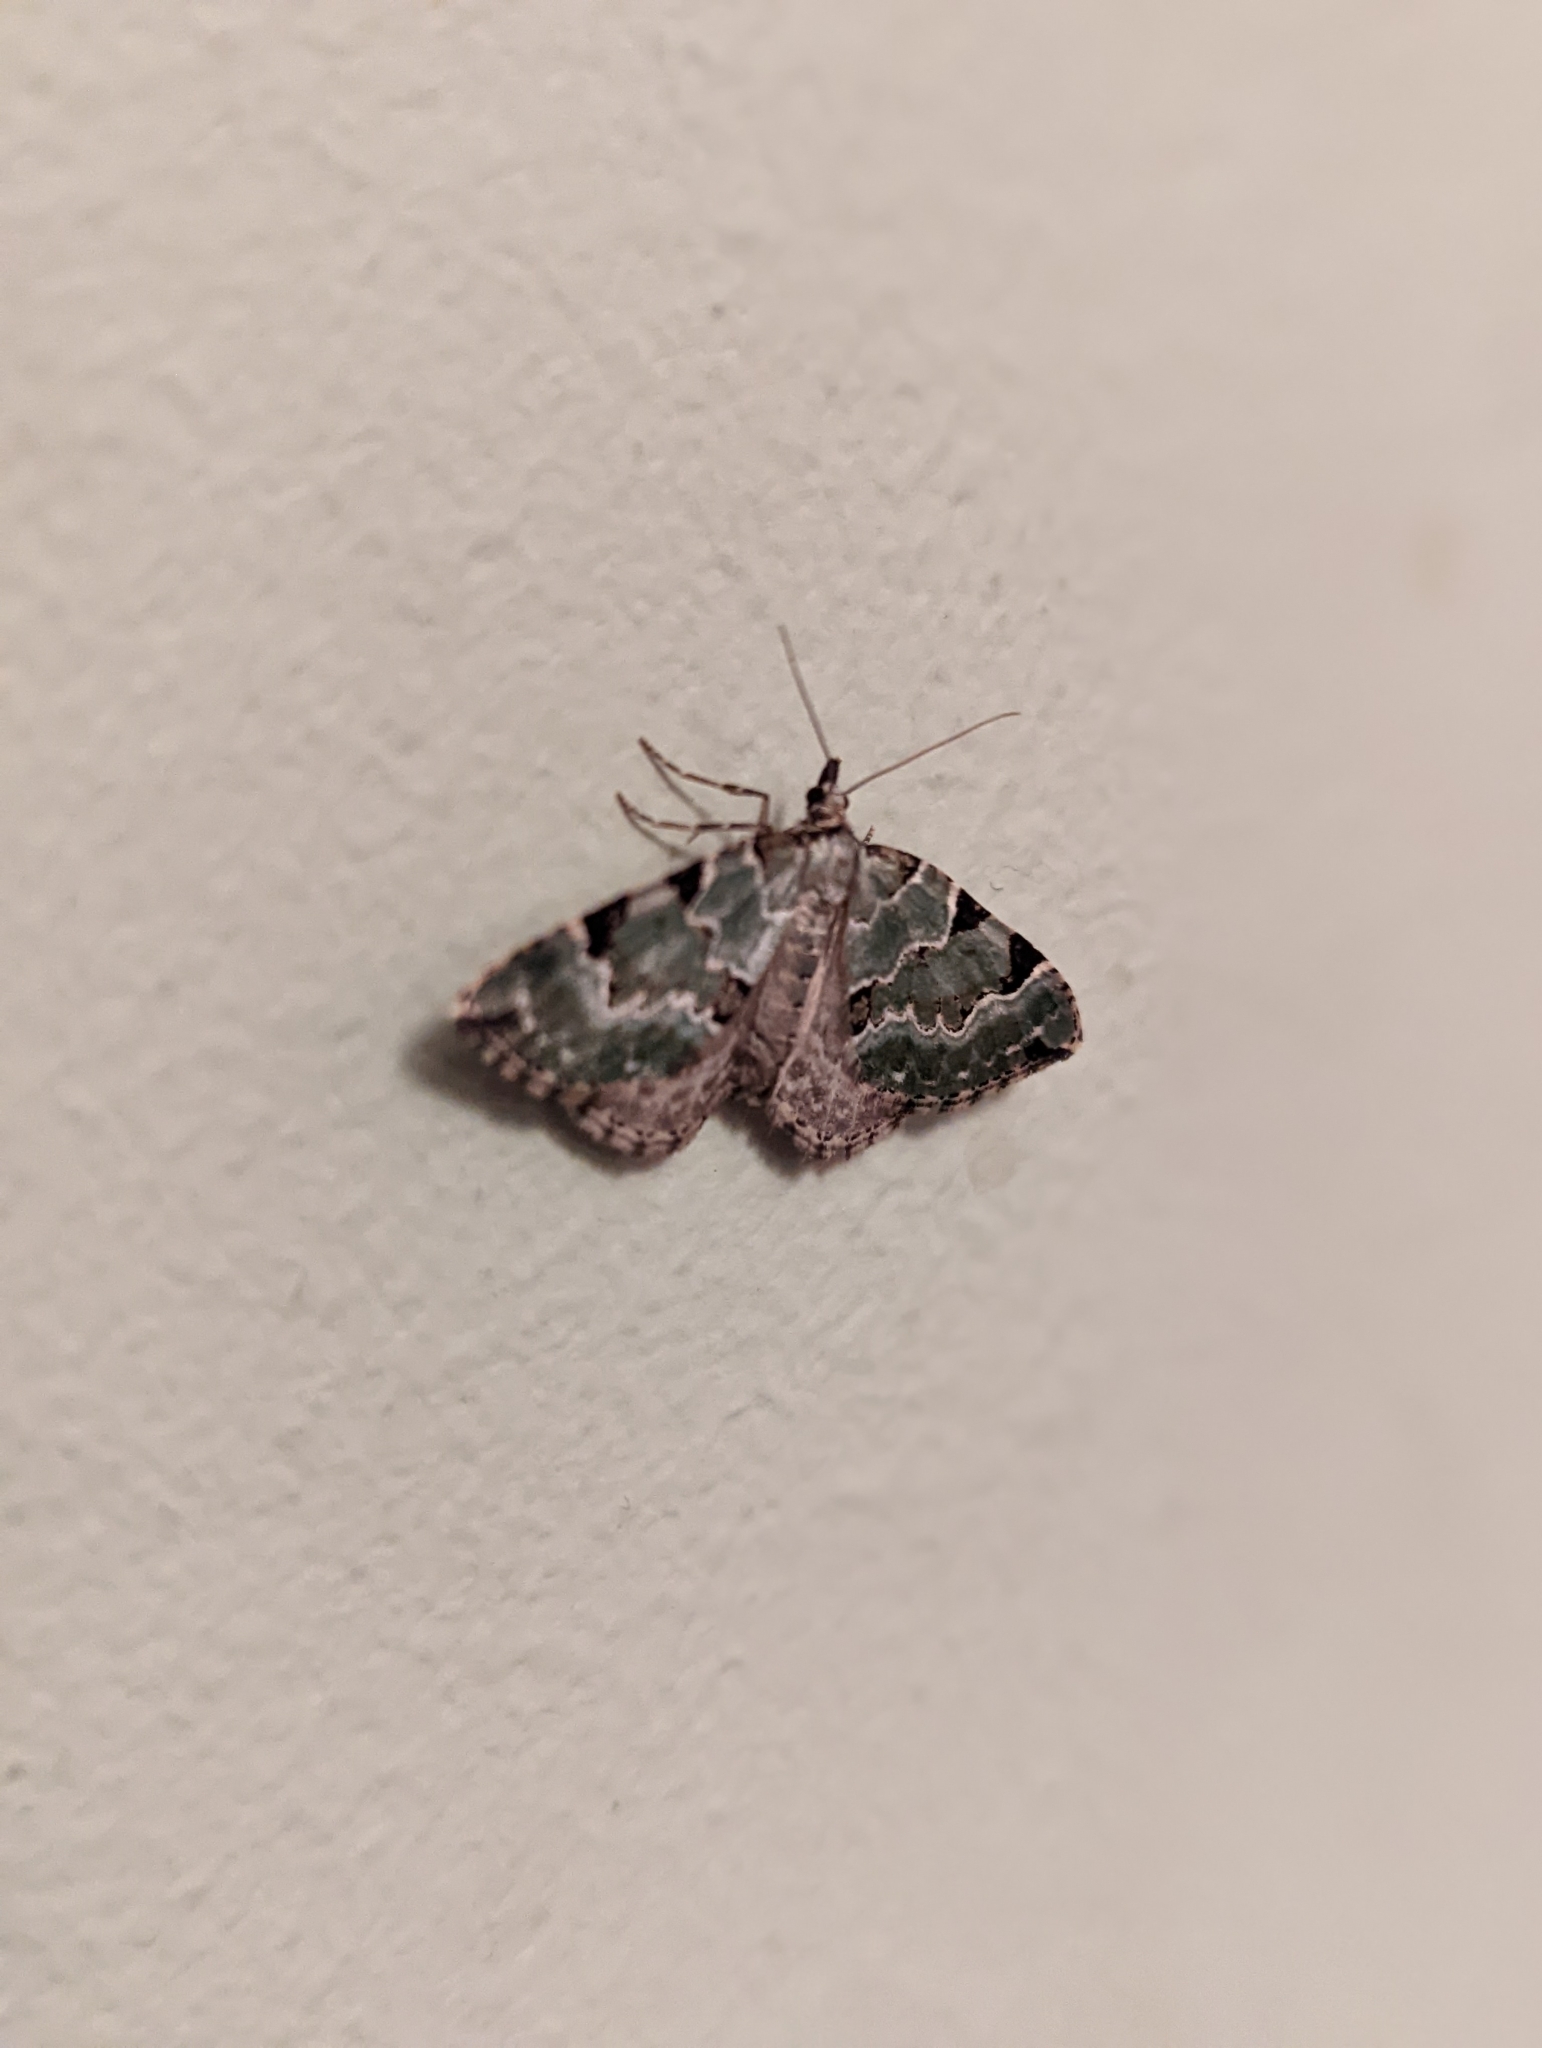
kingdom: Animalia
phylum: Arthropoda
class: Insecta
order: Lepidoptera
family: Geometridae
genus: Colostygia
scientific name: Colostygia pectinataria
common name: Green carpet
